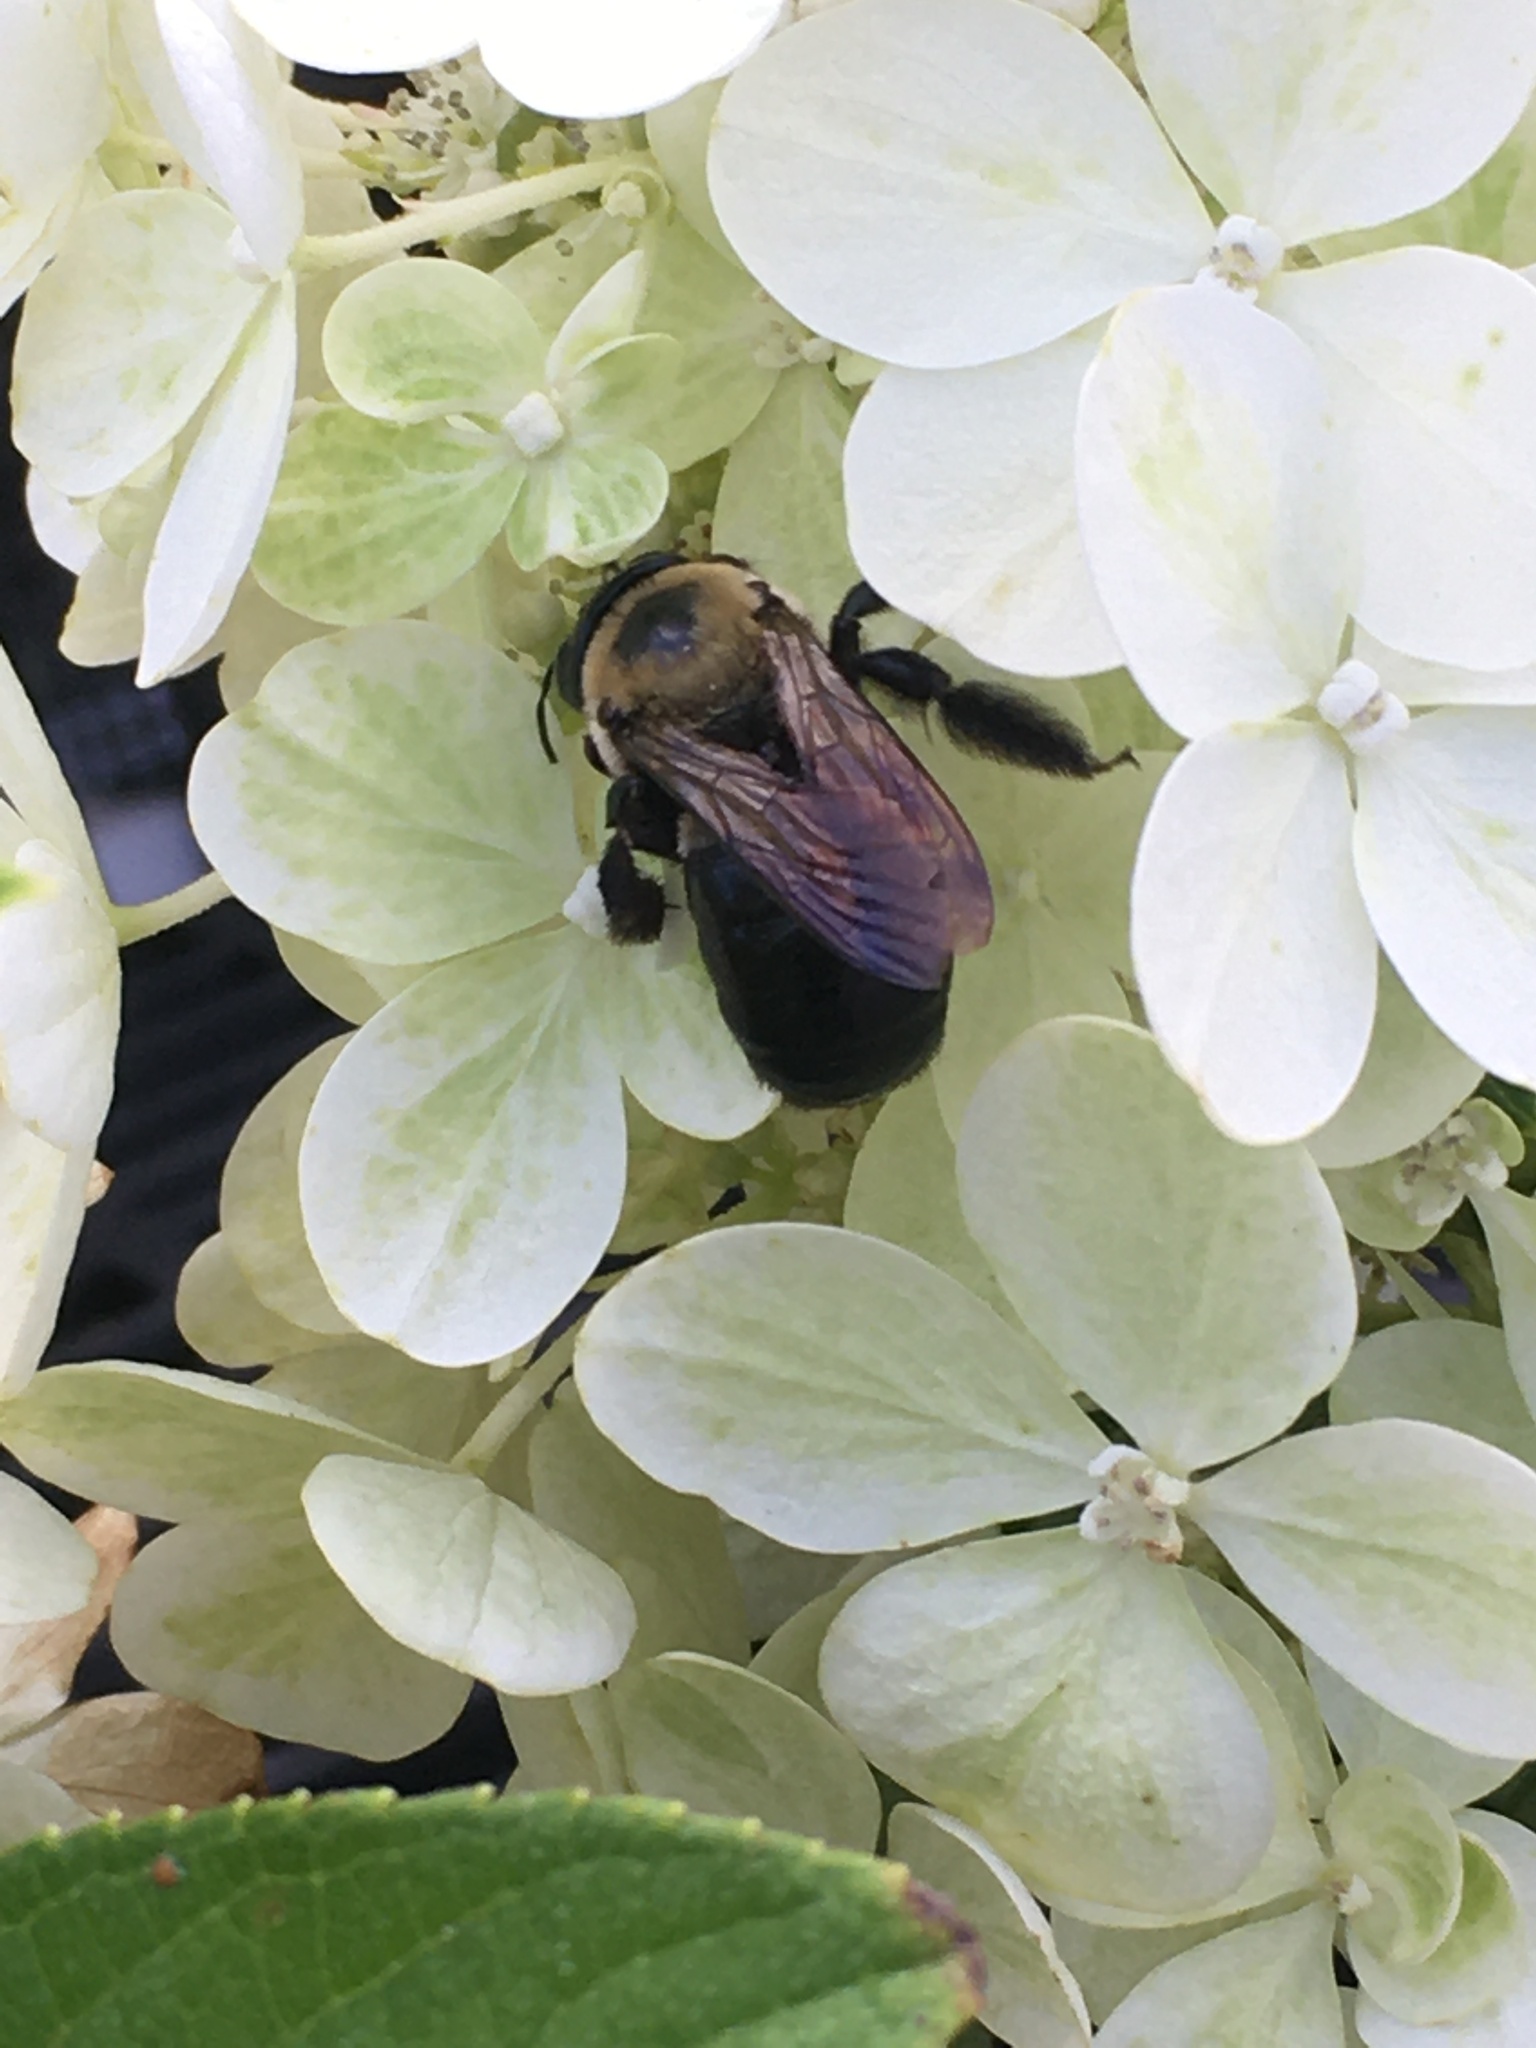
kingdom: Animalia
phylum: Arthropoda
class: Insecta
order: Hymenoptera
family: Apidae
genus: Xylocopa
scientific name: Xylocopa virginica
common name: Carpenter bee
